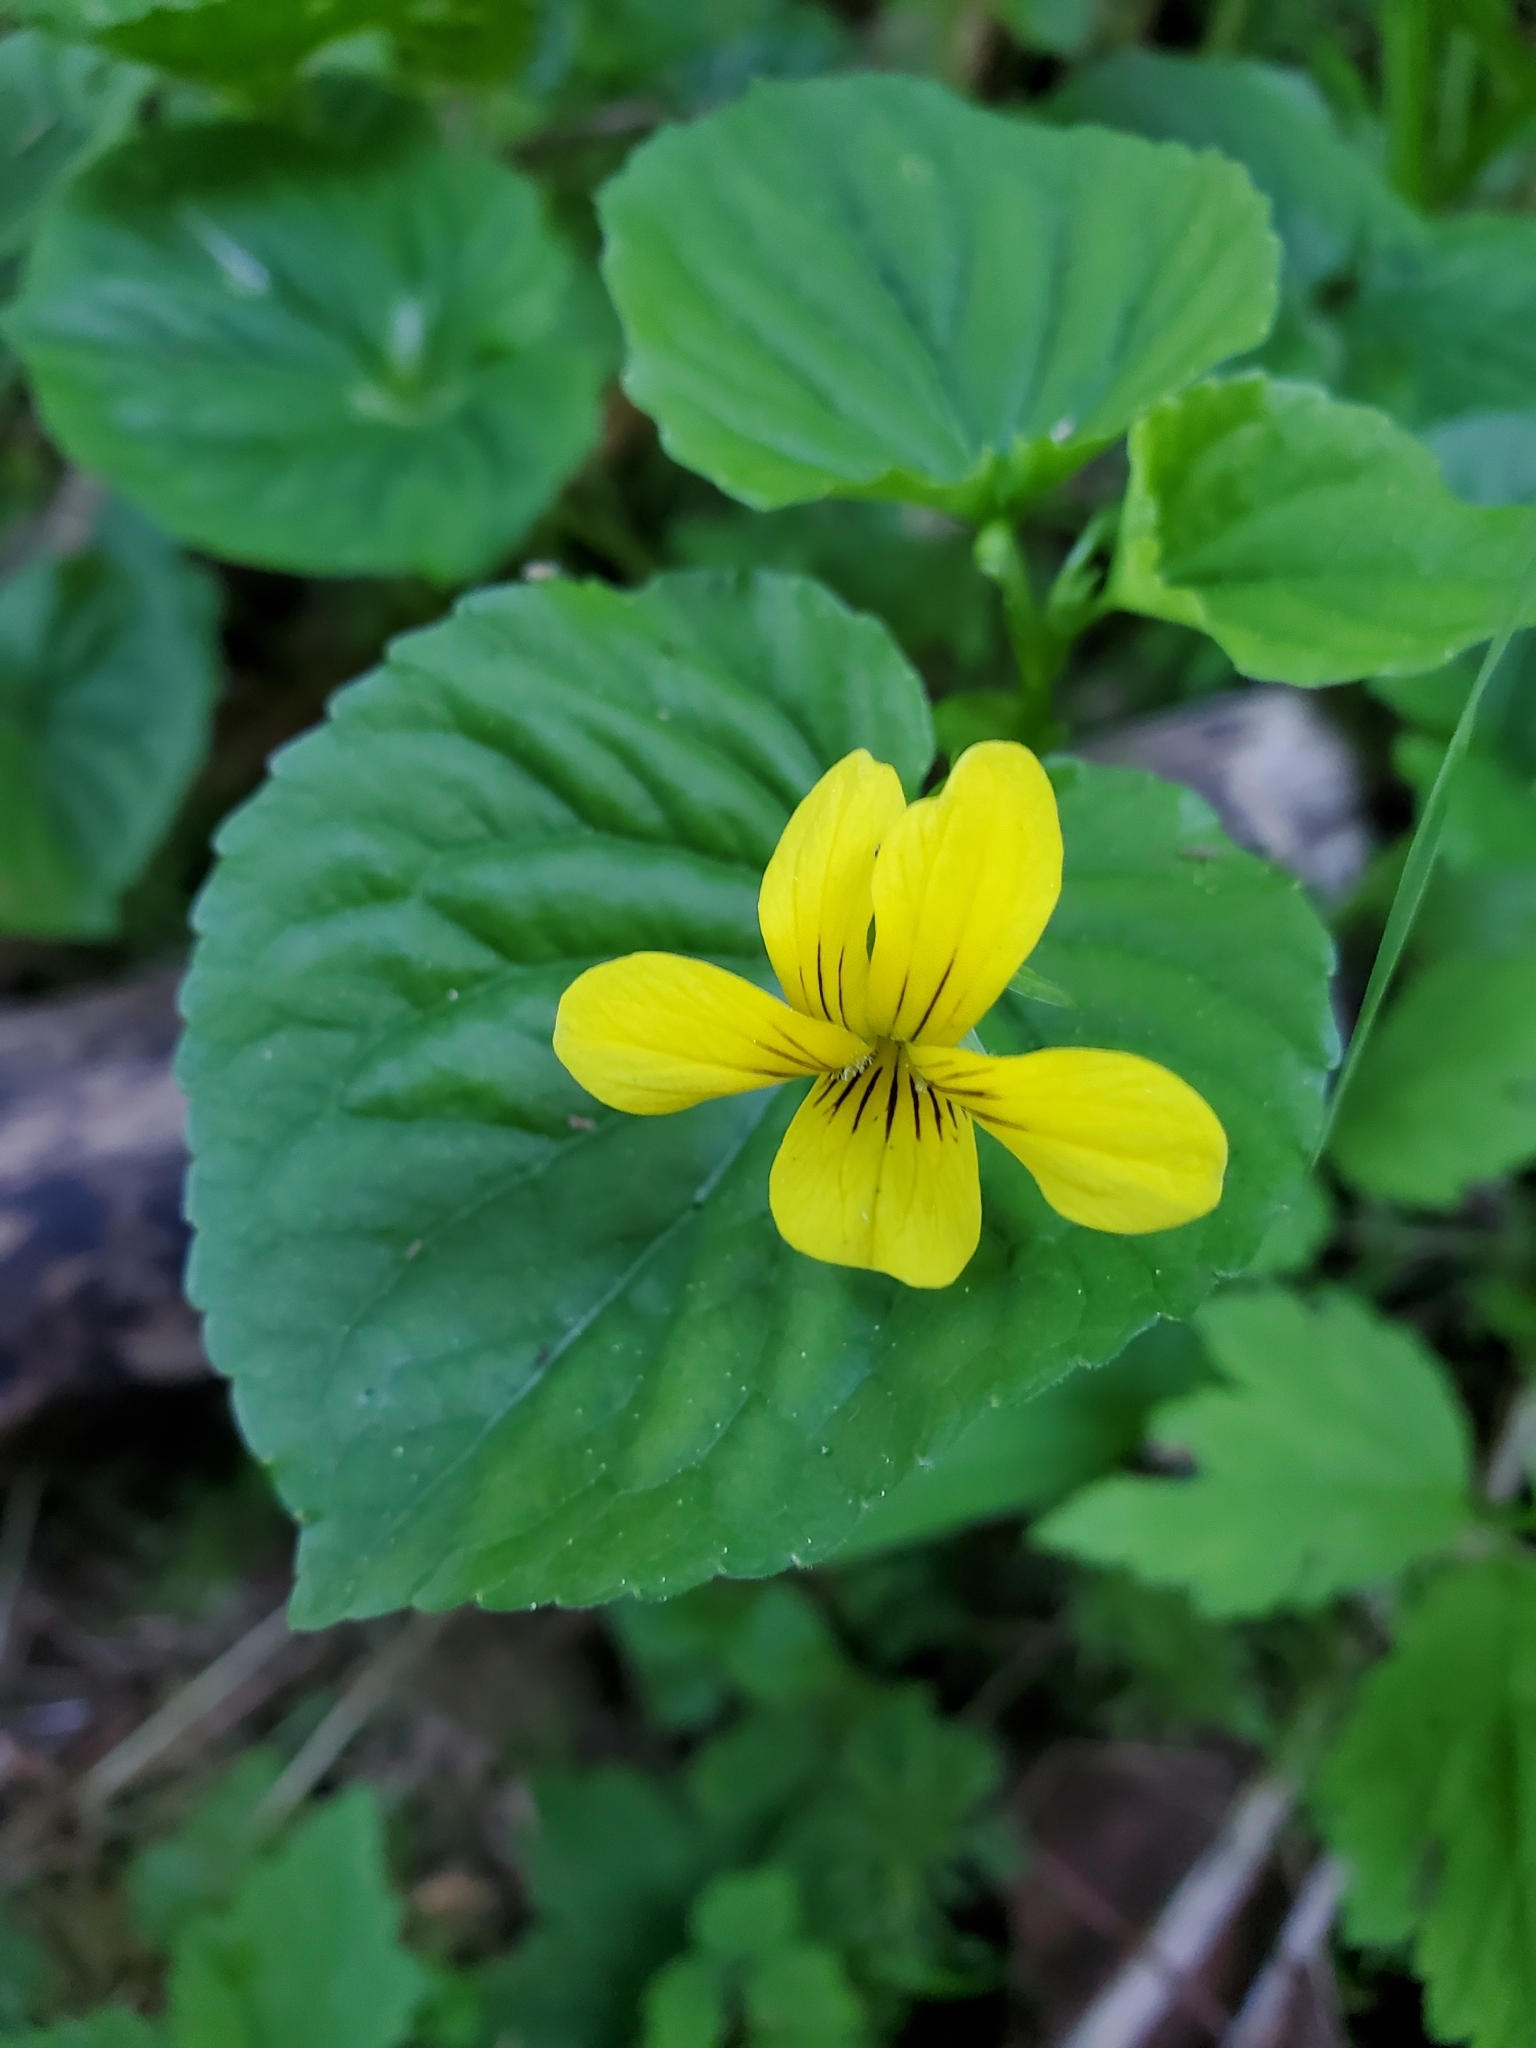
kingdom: Plantae
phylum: Tracheophyta
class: Magnoliopsida
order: Malpighiales
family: Violaceae
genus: Viola
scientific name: Viola glabella
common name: Stream violet
